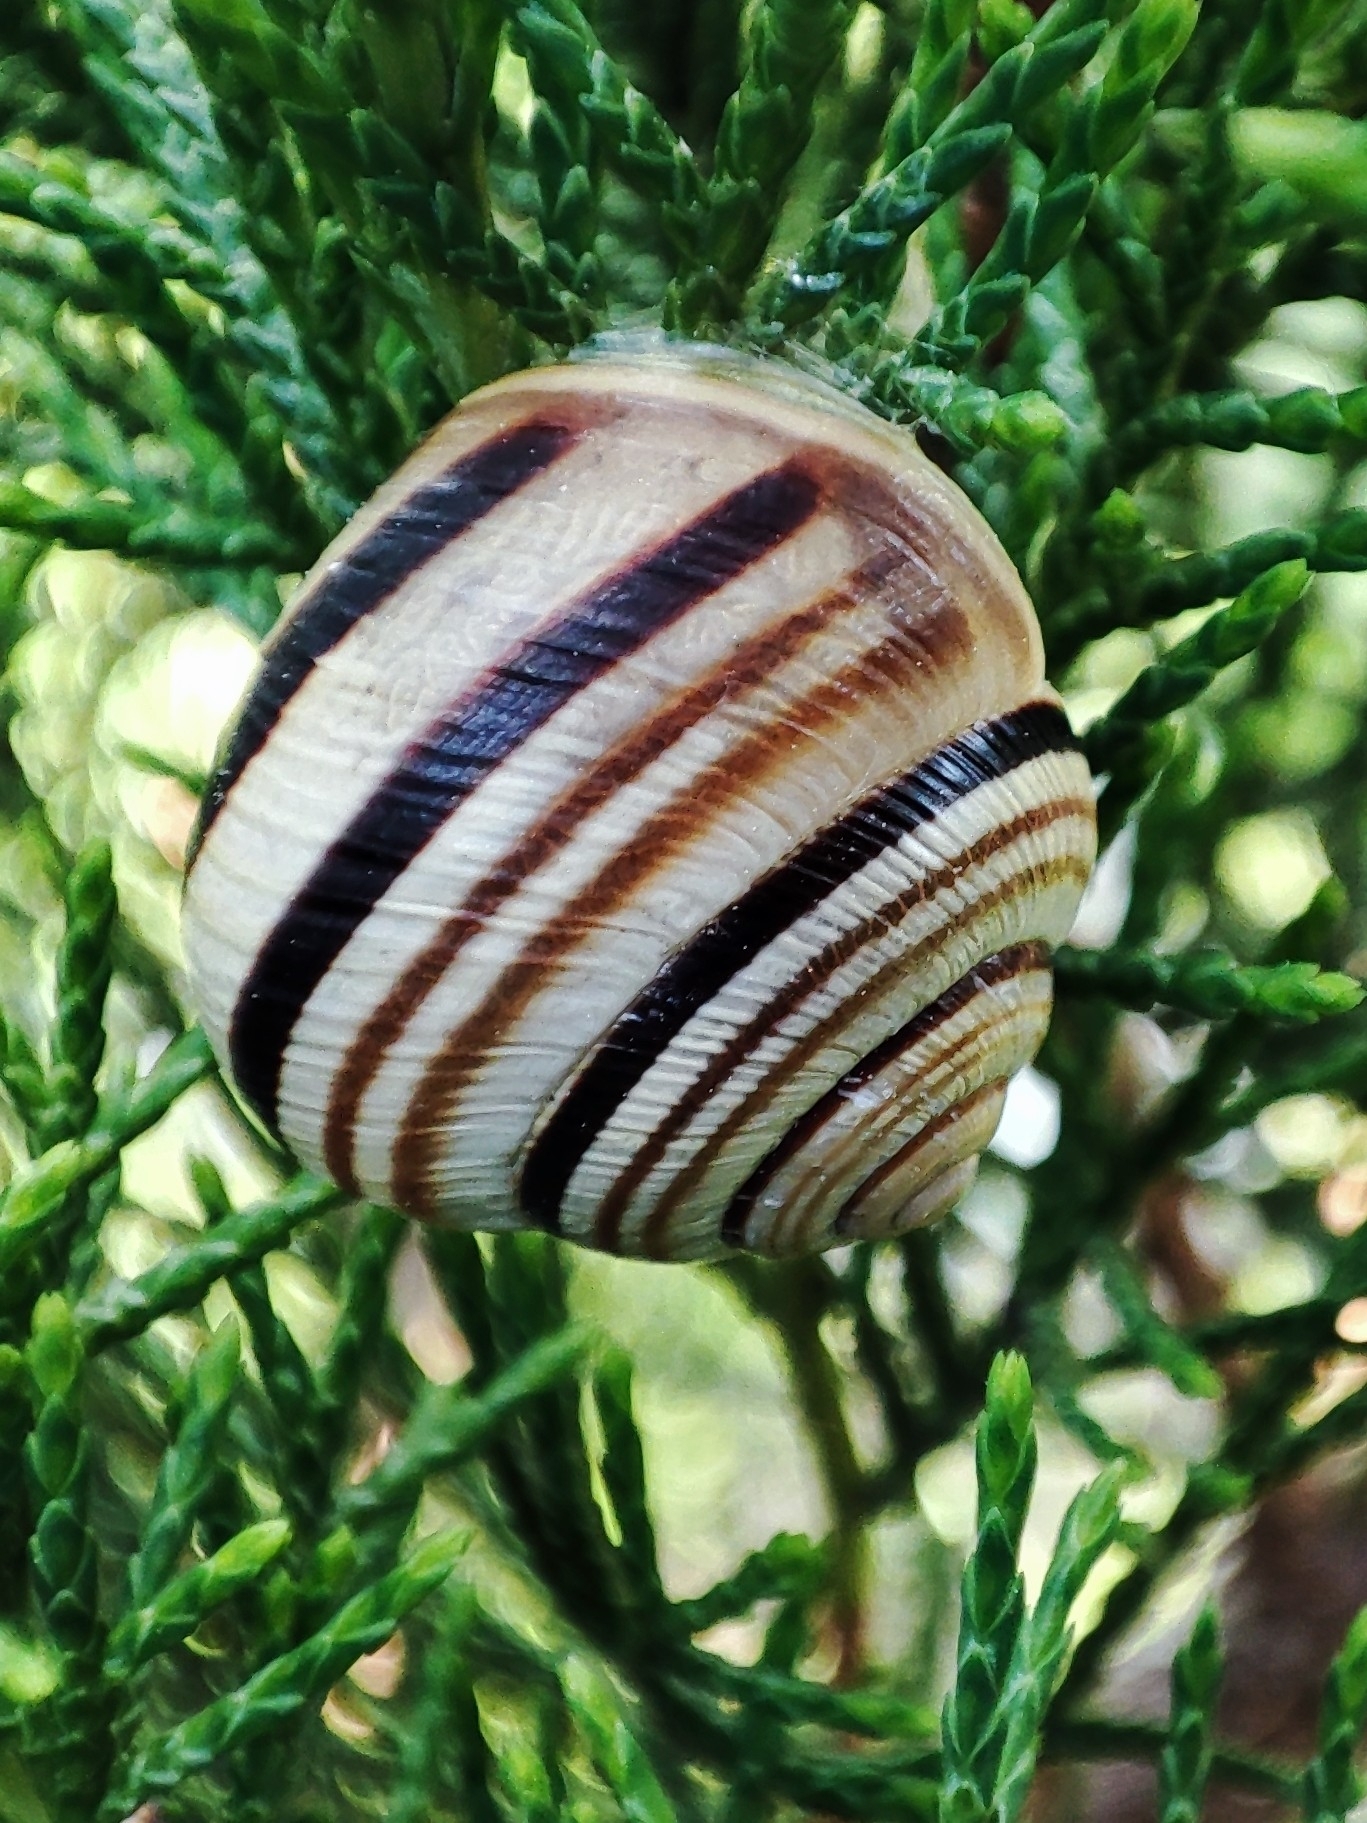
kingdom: Animalia
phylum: Mollusca
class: Gastropoda
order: Stylommatophora
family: Helicidae
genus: Caucasotachea
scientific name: Caucasotachea vindobonensis
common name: European helicid land snail
